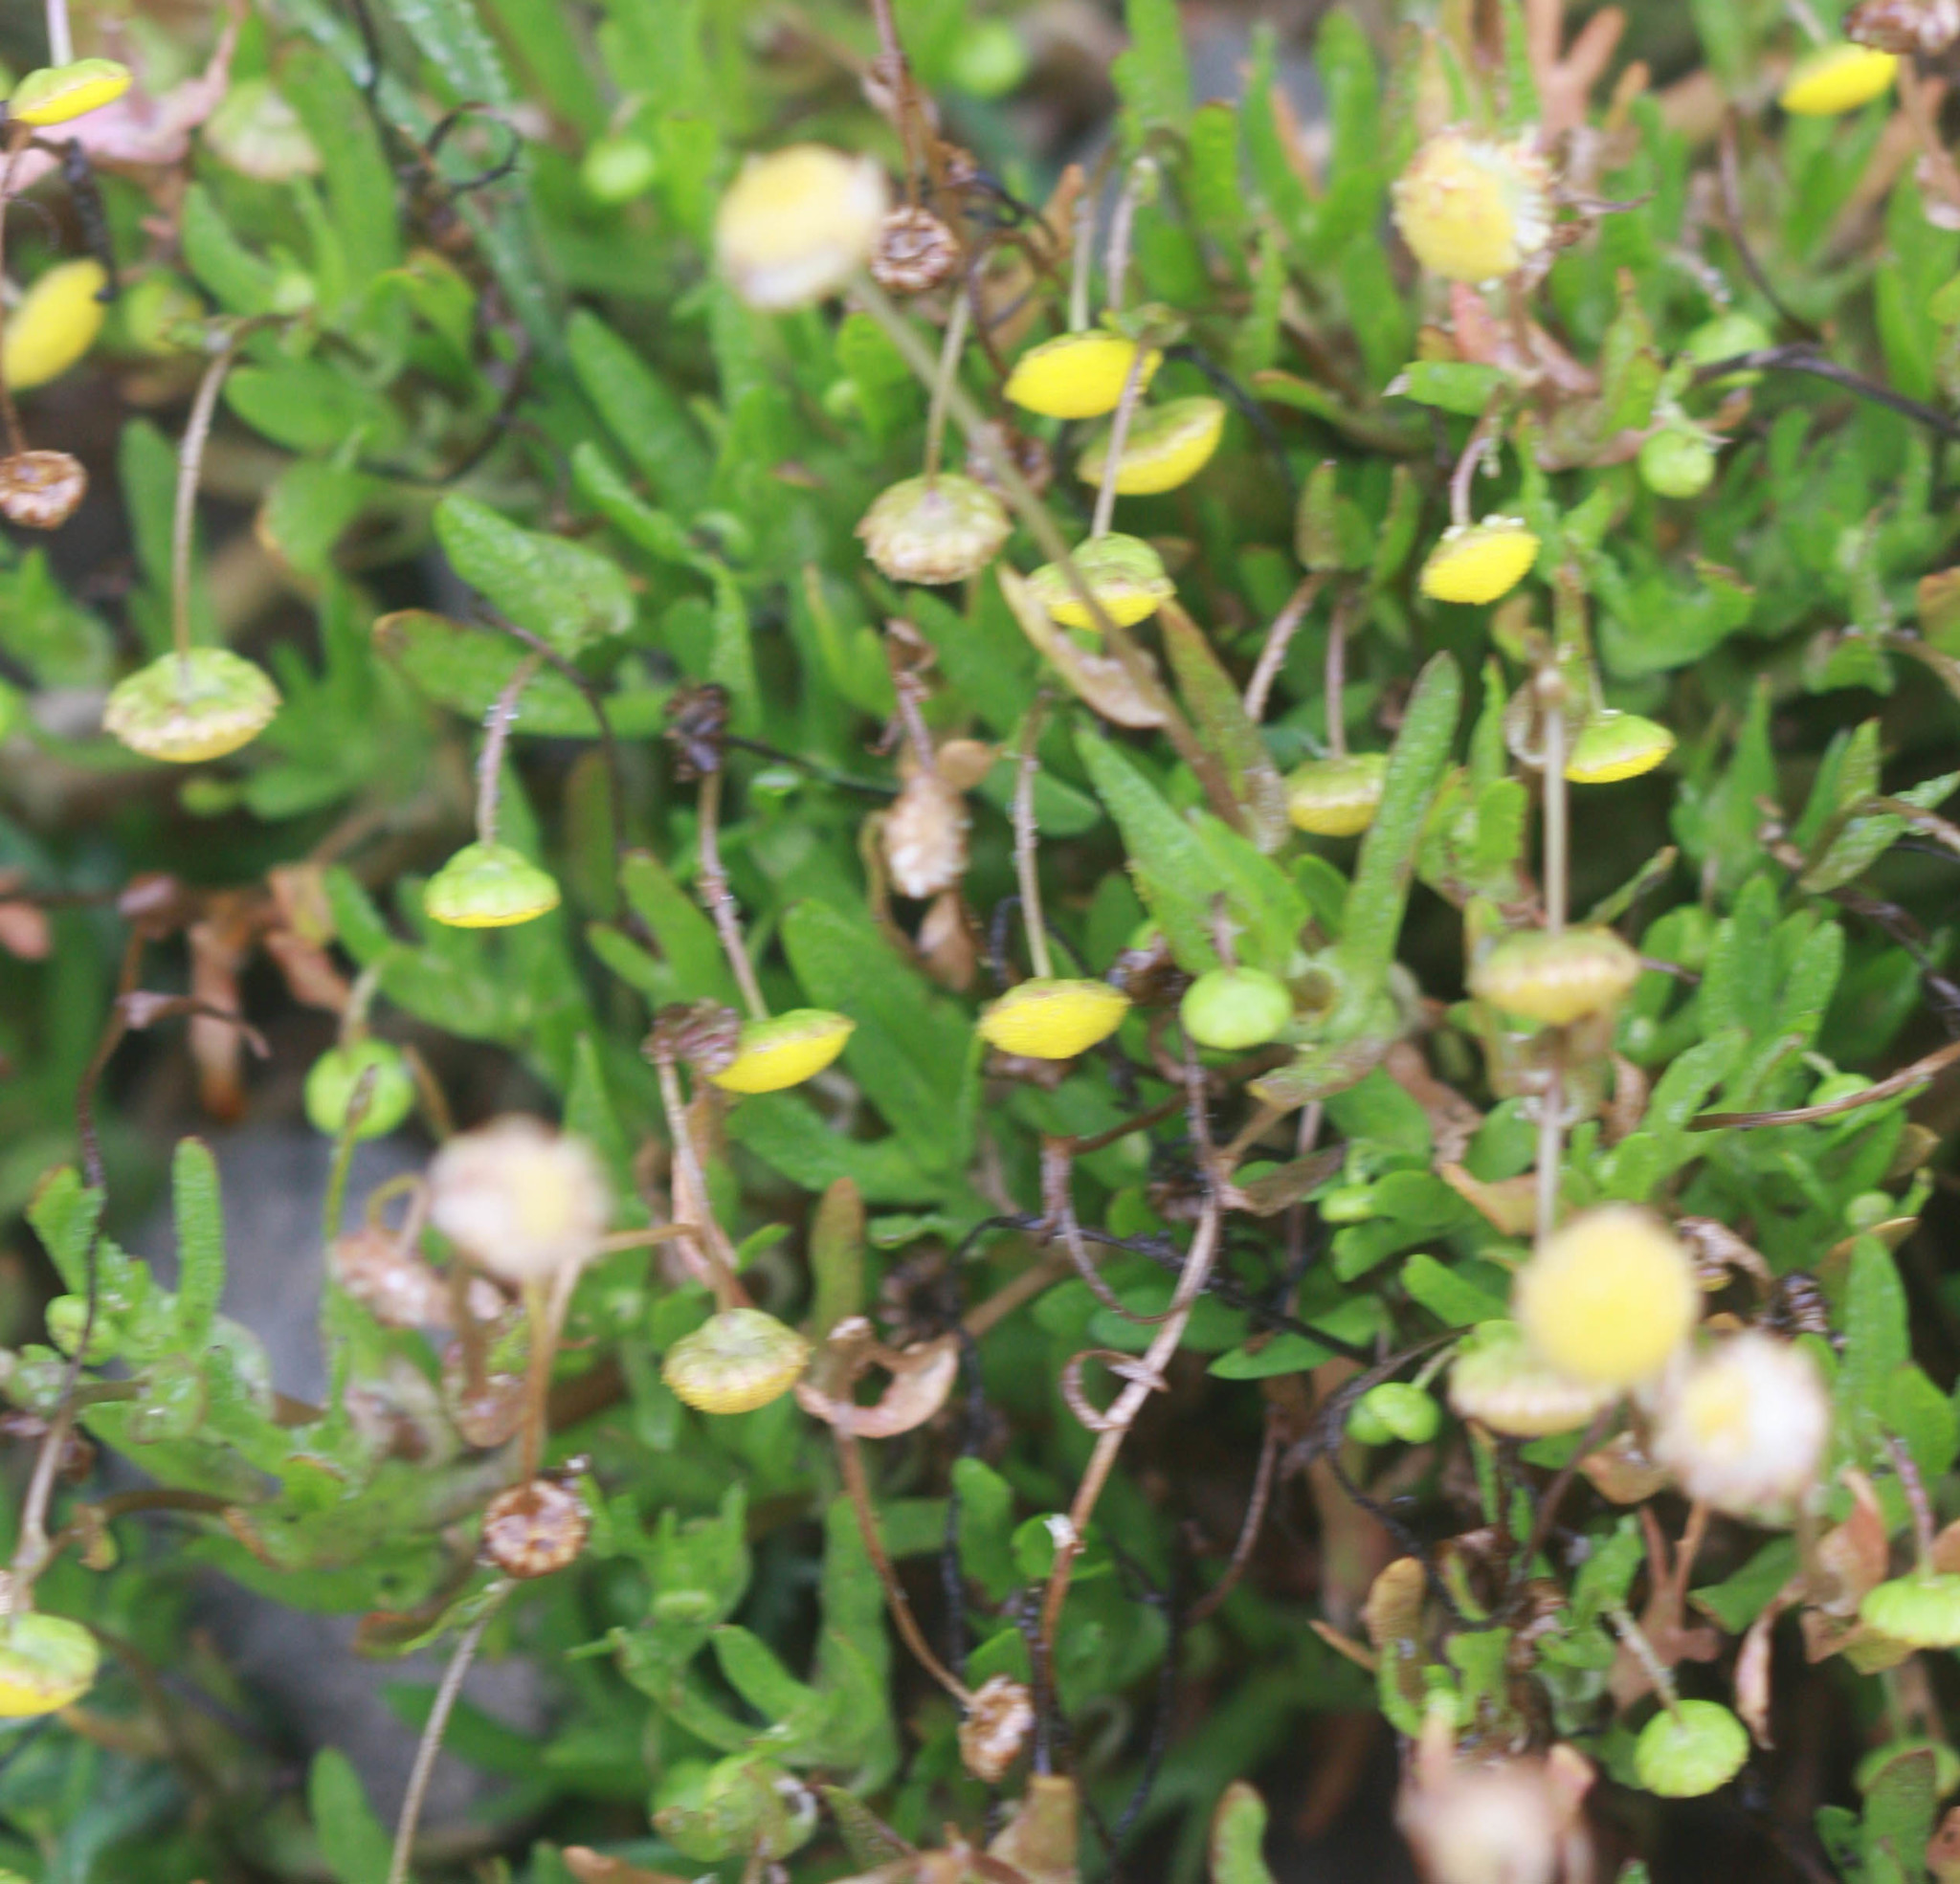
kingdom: Plantae
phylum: Tracheophyta
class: Magnoliopsida
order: Asterales
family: Asteraceae
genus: Cotula
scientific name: Cotula coronopifolia
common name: Buttonweed
